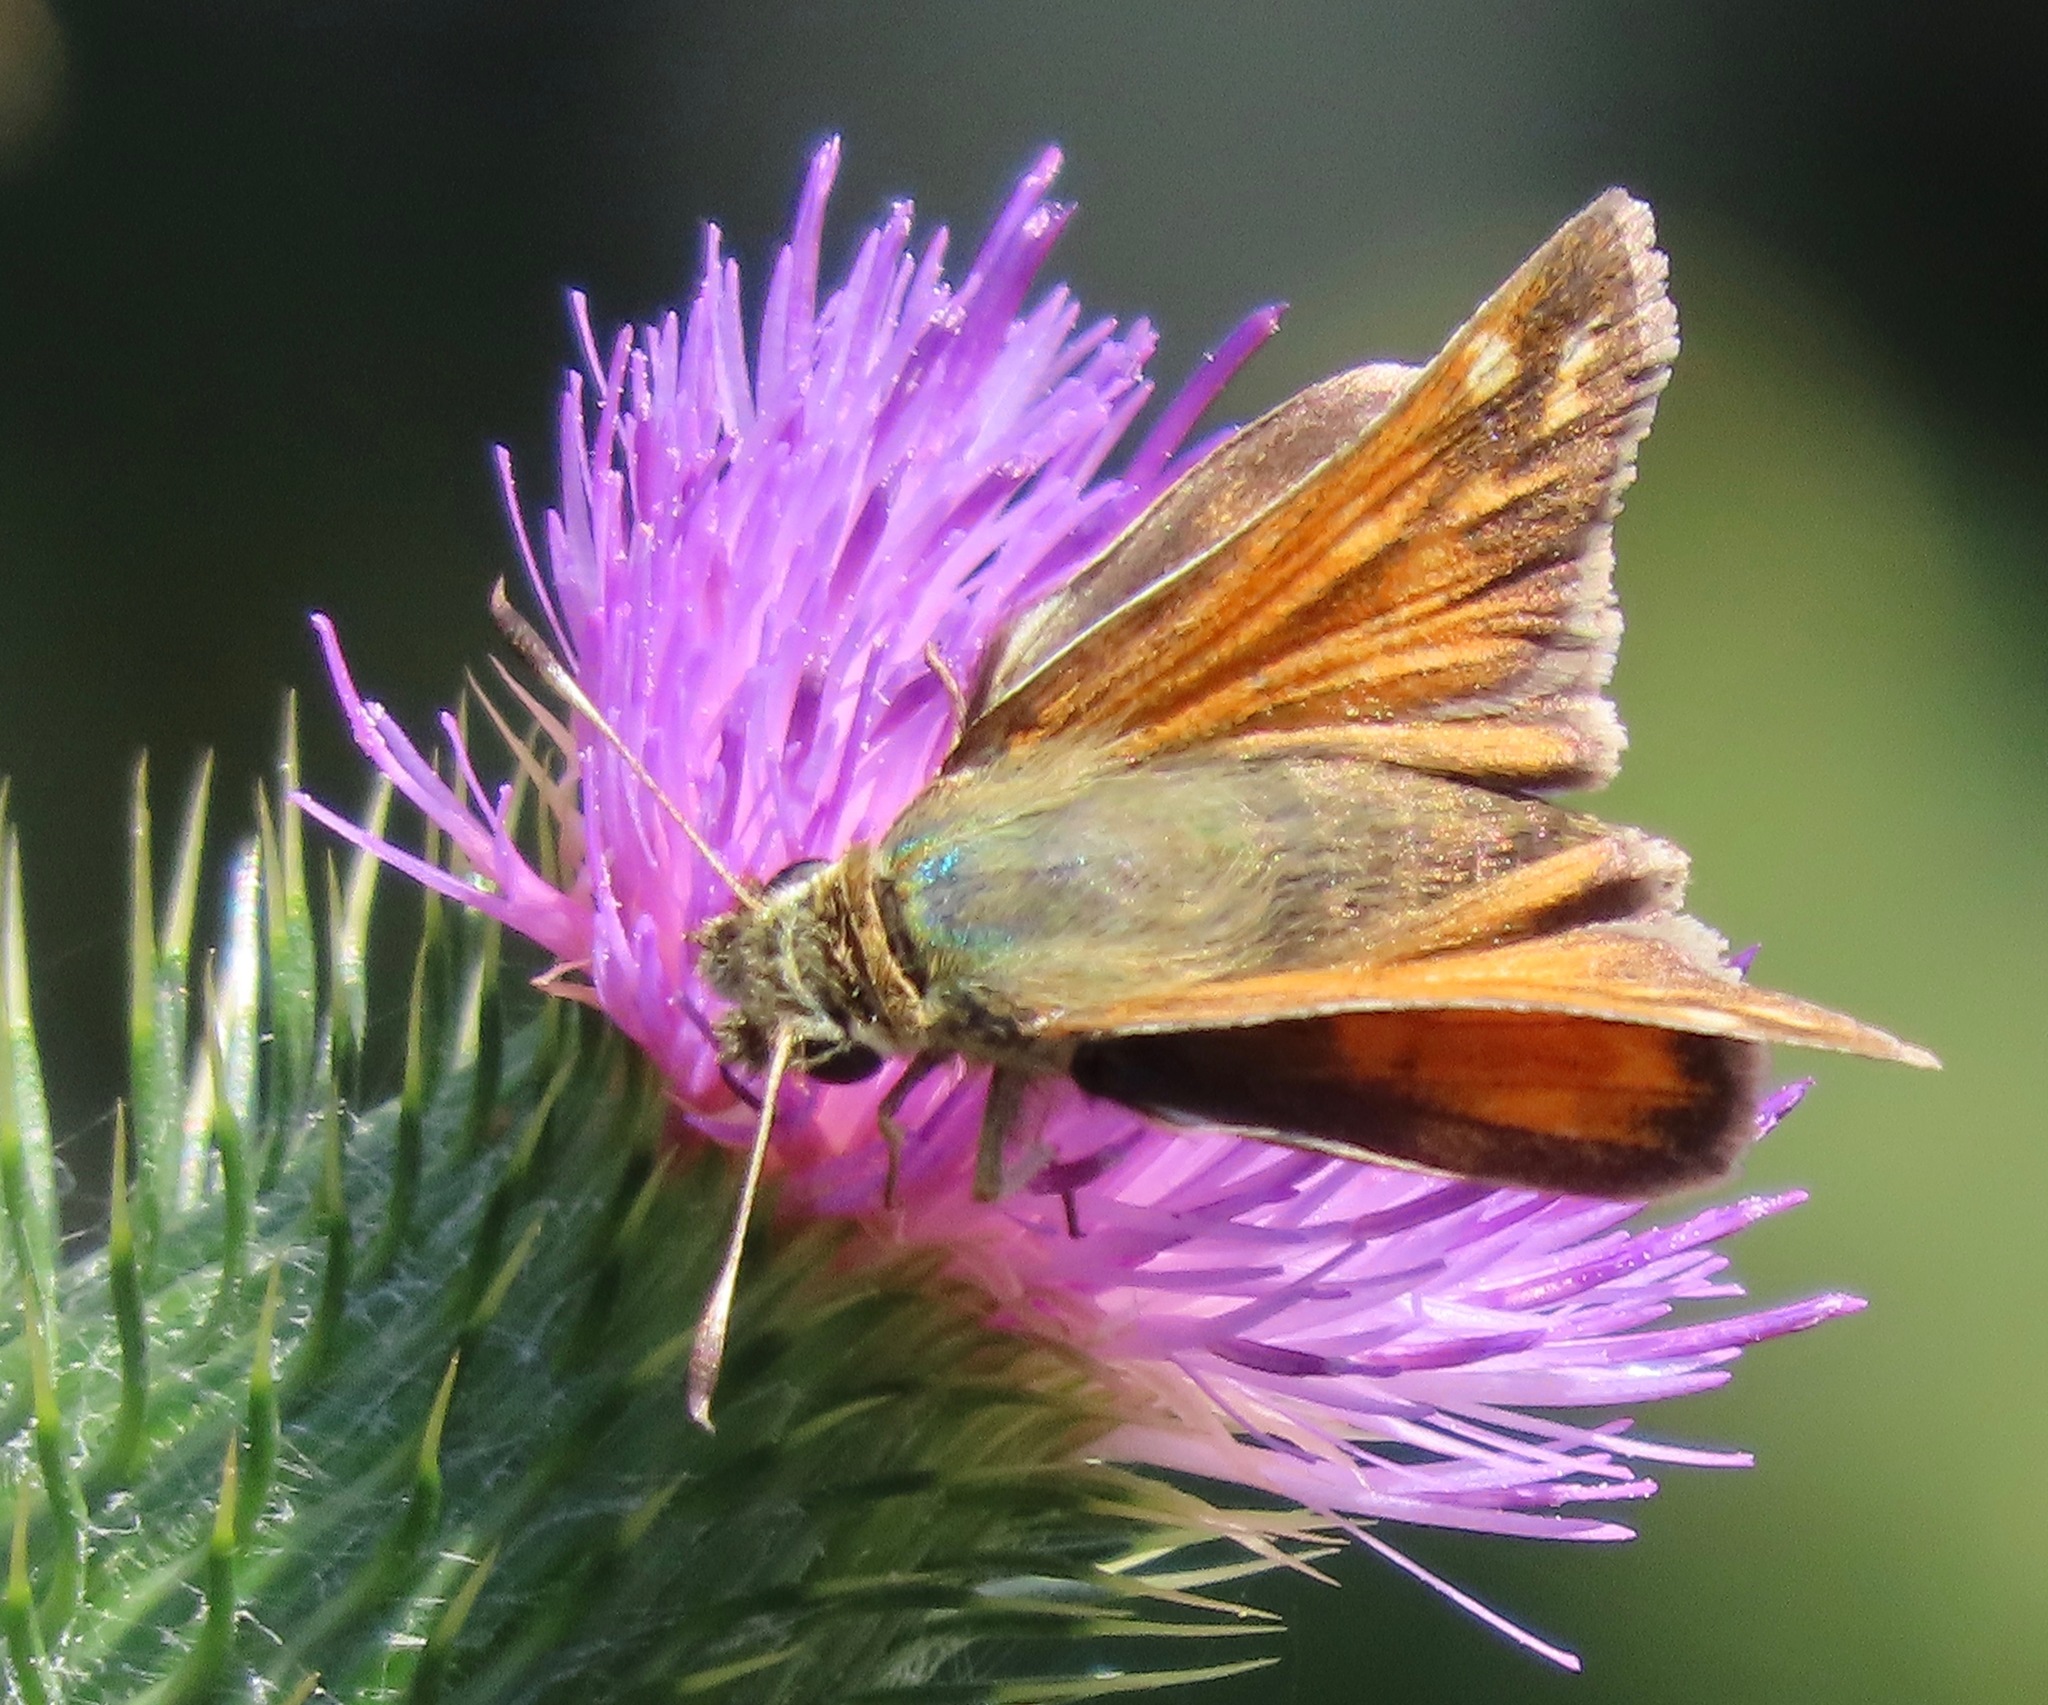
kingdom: Animalia
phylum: Arthropoda
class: Insecta
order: Lepidoptera
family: Hesperiidae
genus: Hesperia
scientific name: Hesperia harpalus
